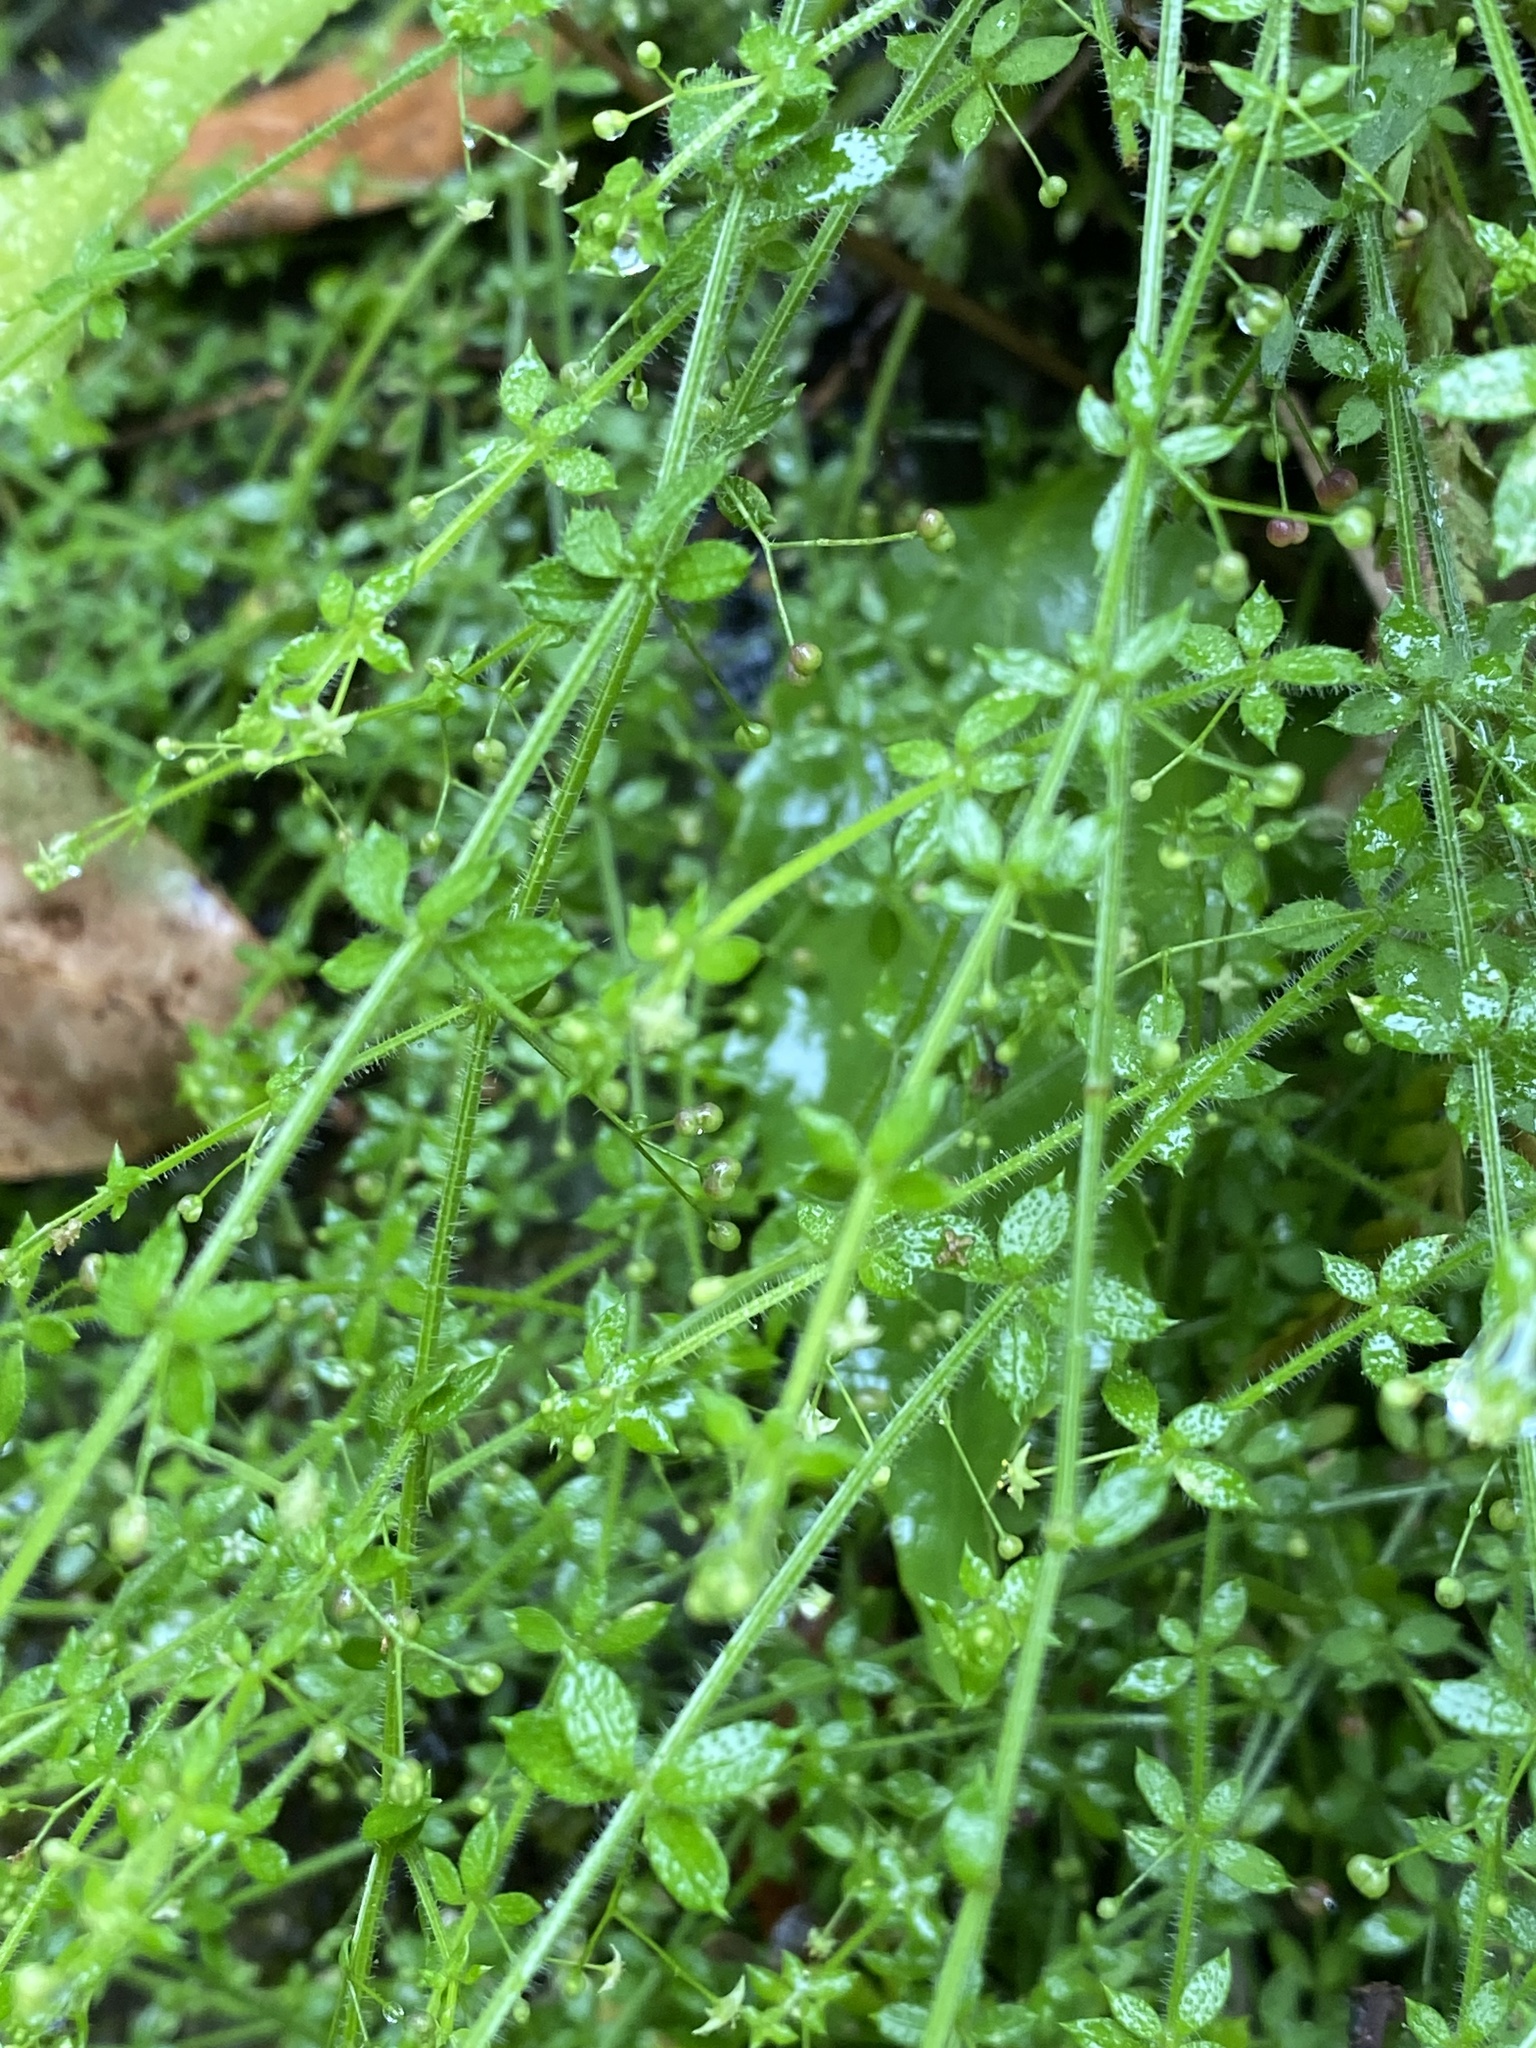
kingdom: Plantae
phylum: Tracheophyta
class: Magnoliopsida
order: Gentianales
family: Rubiaceae
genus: Galium
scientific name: Galium leiocarpum
